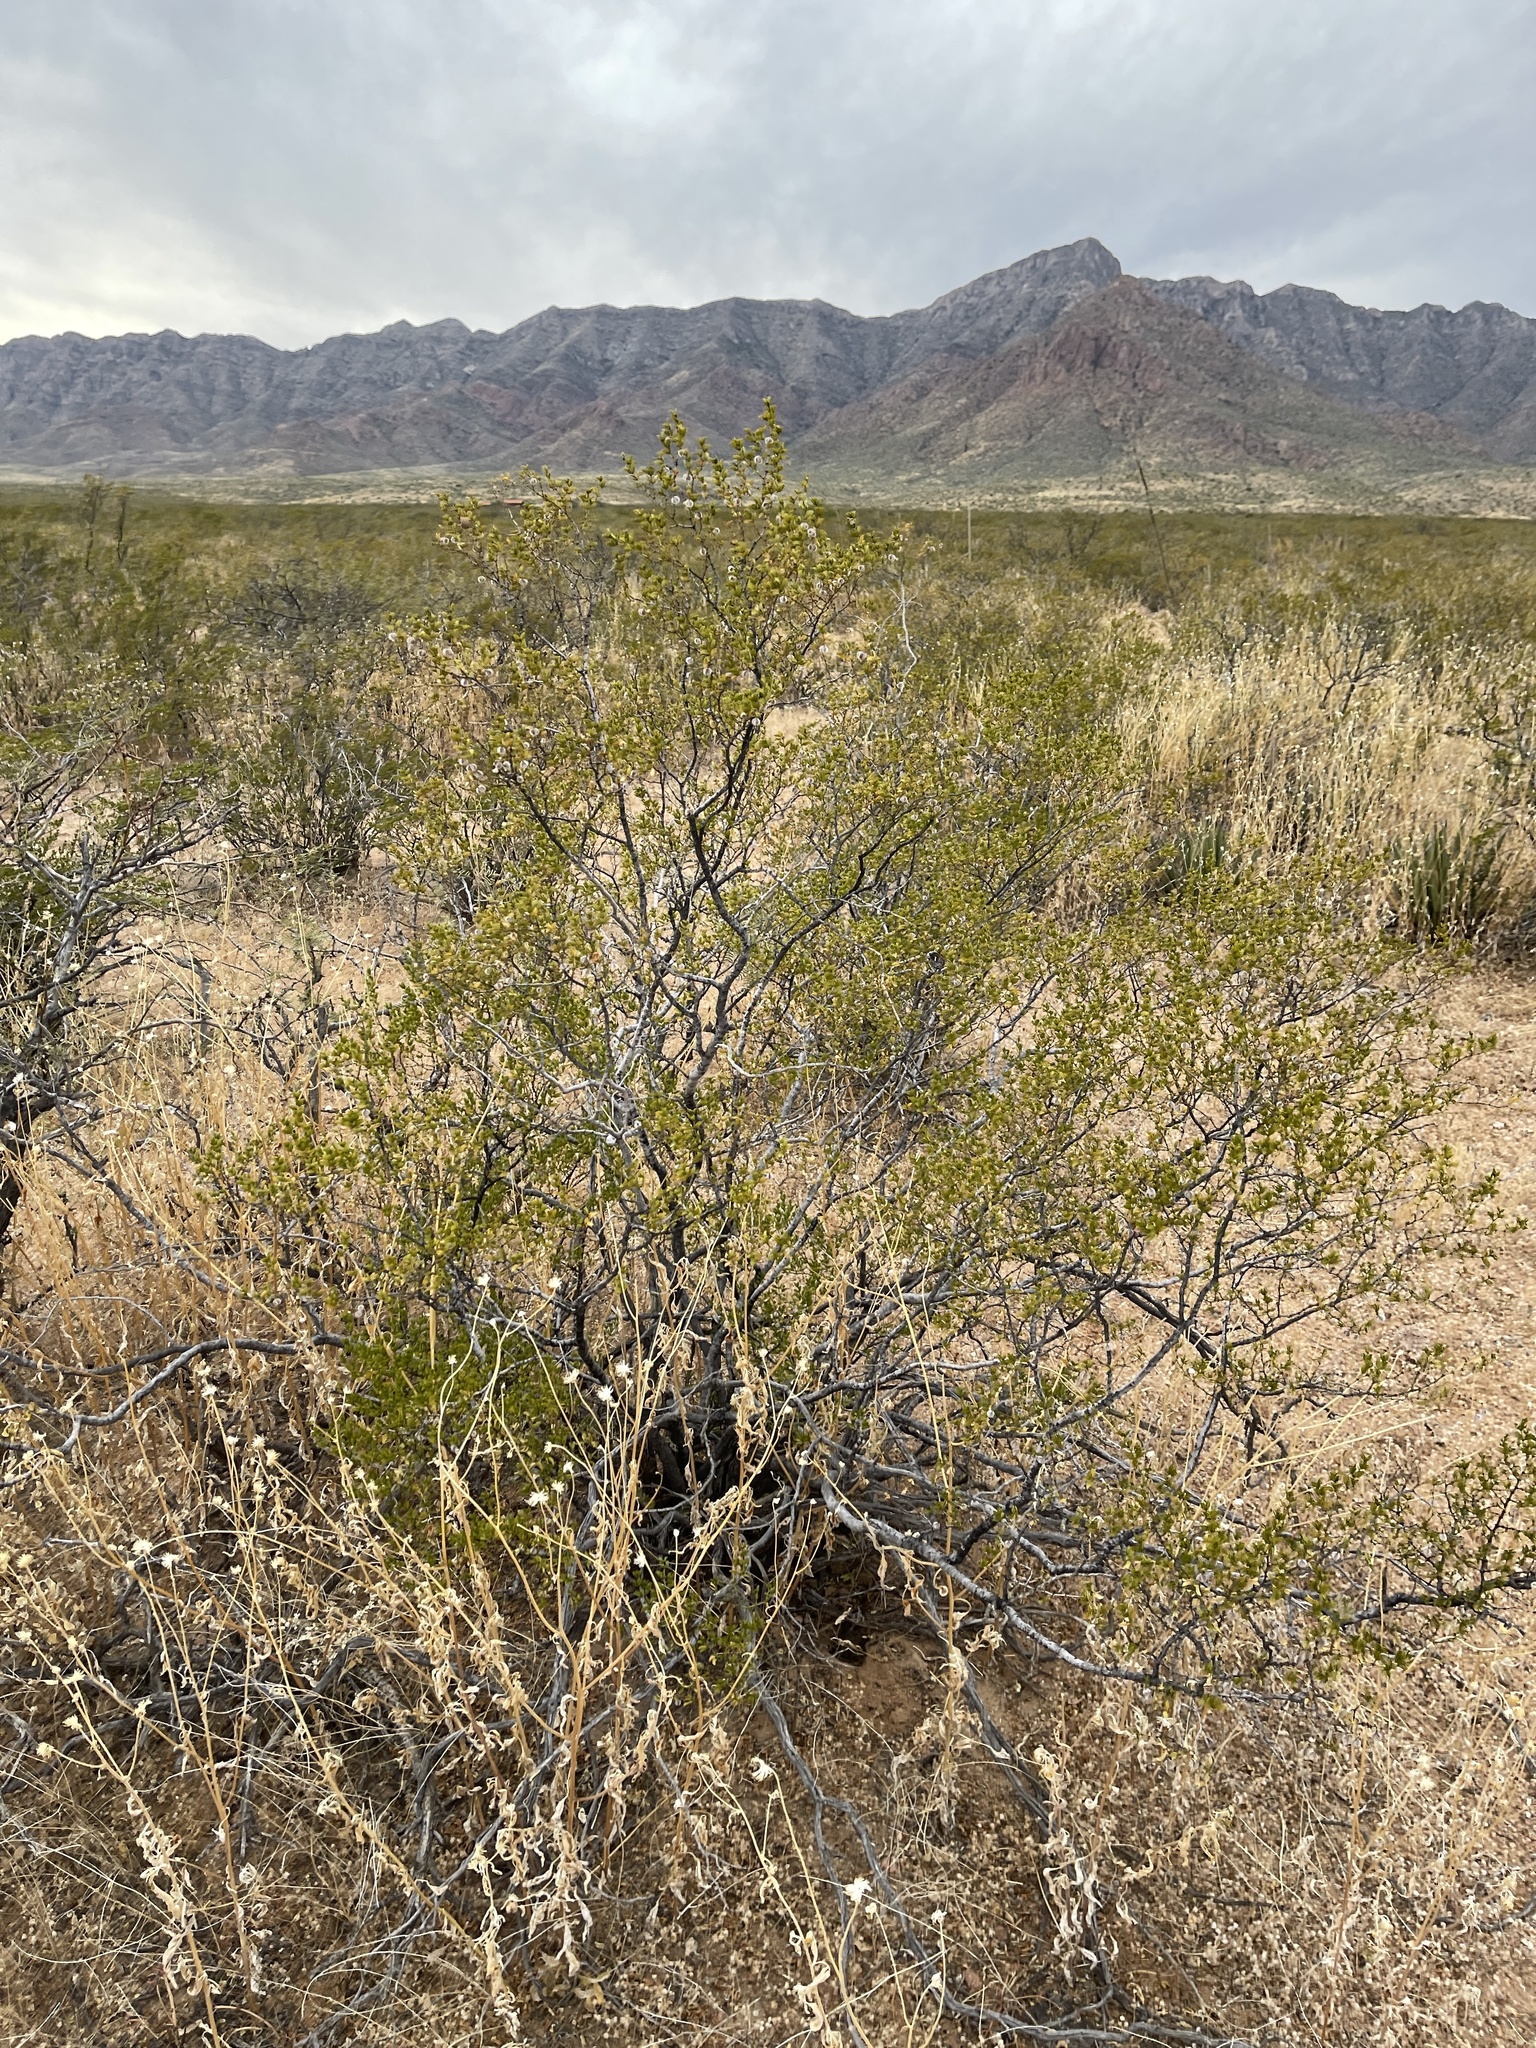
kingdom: Plantae
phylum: Tracheophyta
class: Magnoliopsida
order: Zygophyllales
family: Zygophyllaceae
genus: Larrea
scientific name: Larrea tridentata
